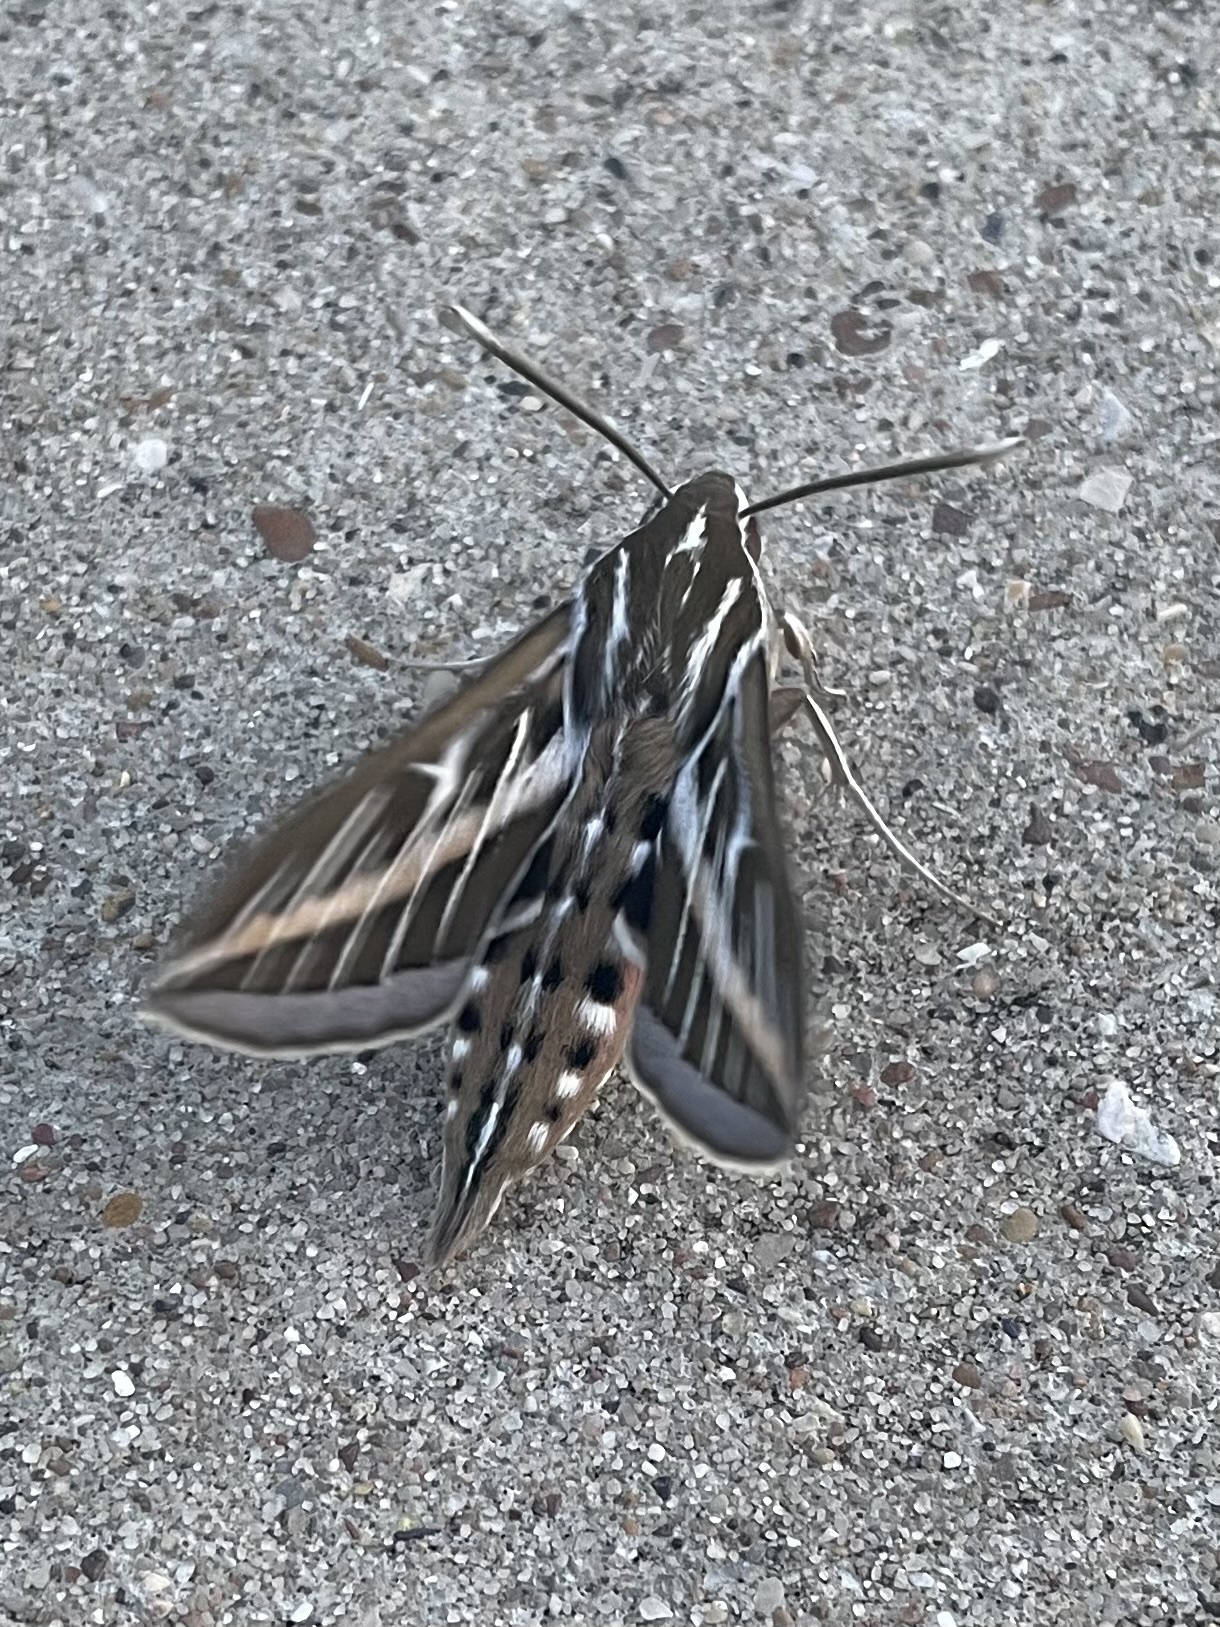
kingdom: Animalia
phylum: Arthropoda
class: Insecta
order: Lepidoptera
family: Sphingidae
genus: Hyles
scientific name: Hyles lineata
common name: White-lined sphinx
